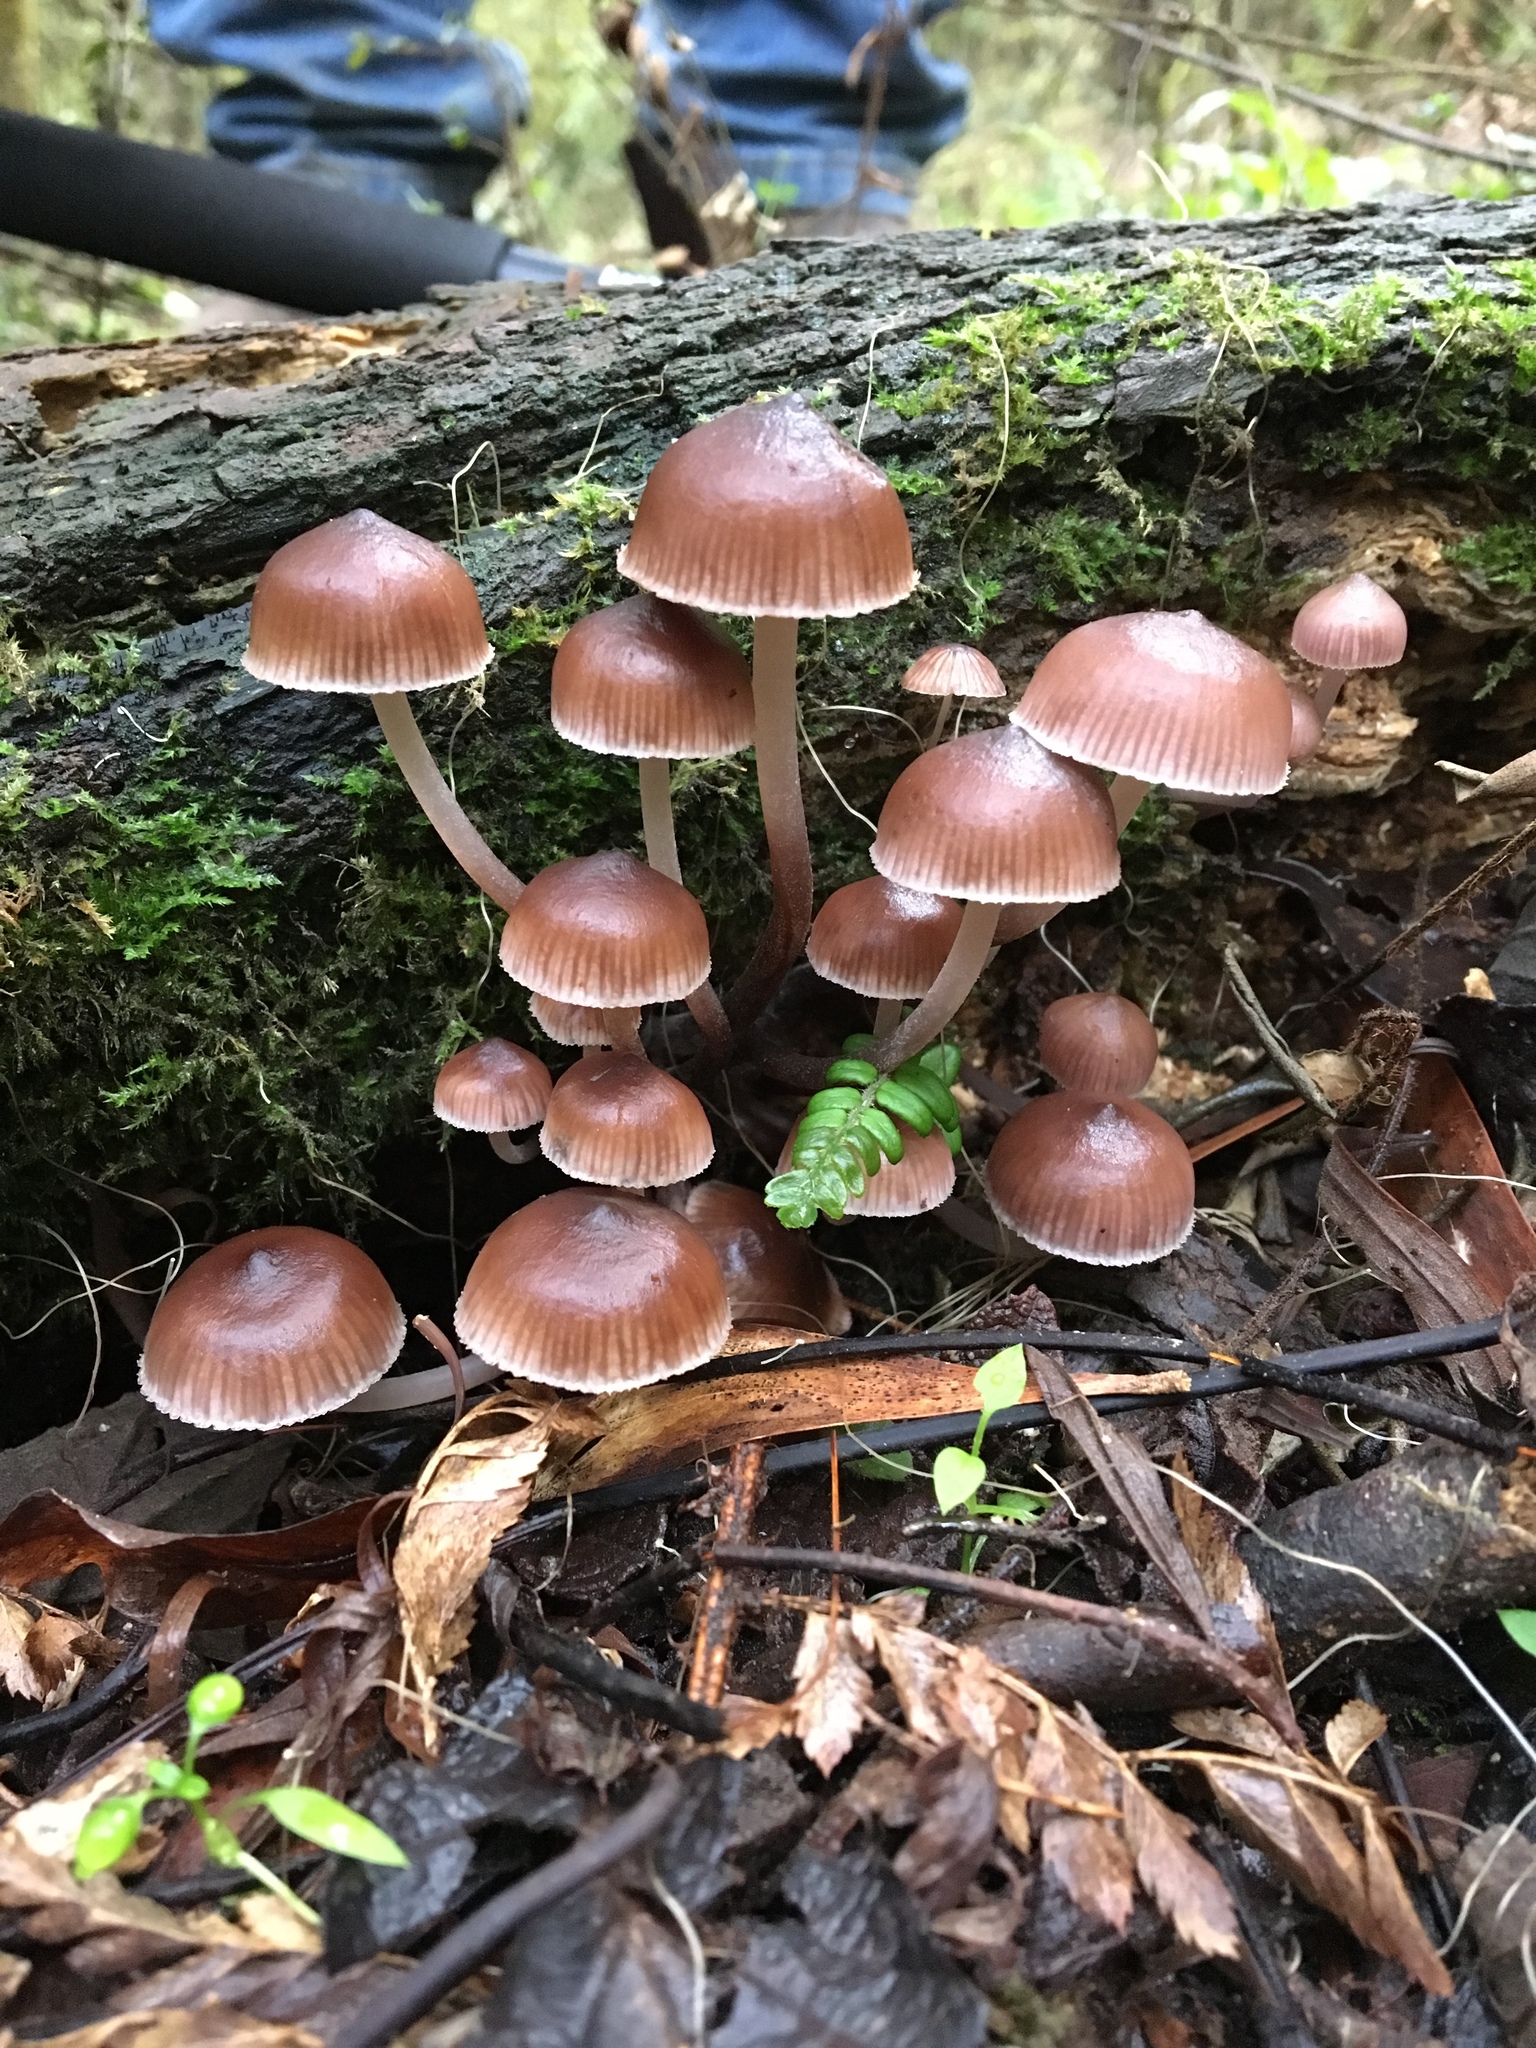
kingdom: Fungi
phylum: Basidiomycota
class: Agaricomycetes
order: Agaricales
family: Mycenaceae
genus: Mycena
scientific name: Mycena clarkeana
